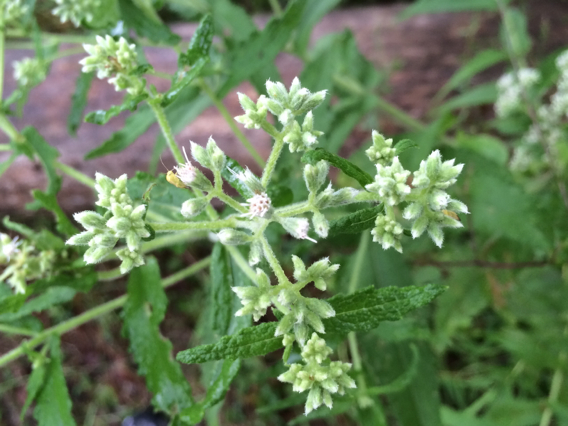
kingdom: Plantae
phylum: Tracheophyta
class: Magnoliopsida
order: Asterales
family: Asteraceae
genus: Eupatorium
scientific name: Eupatorium perfoliatum
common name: Boneset
